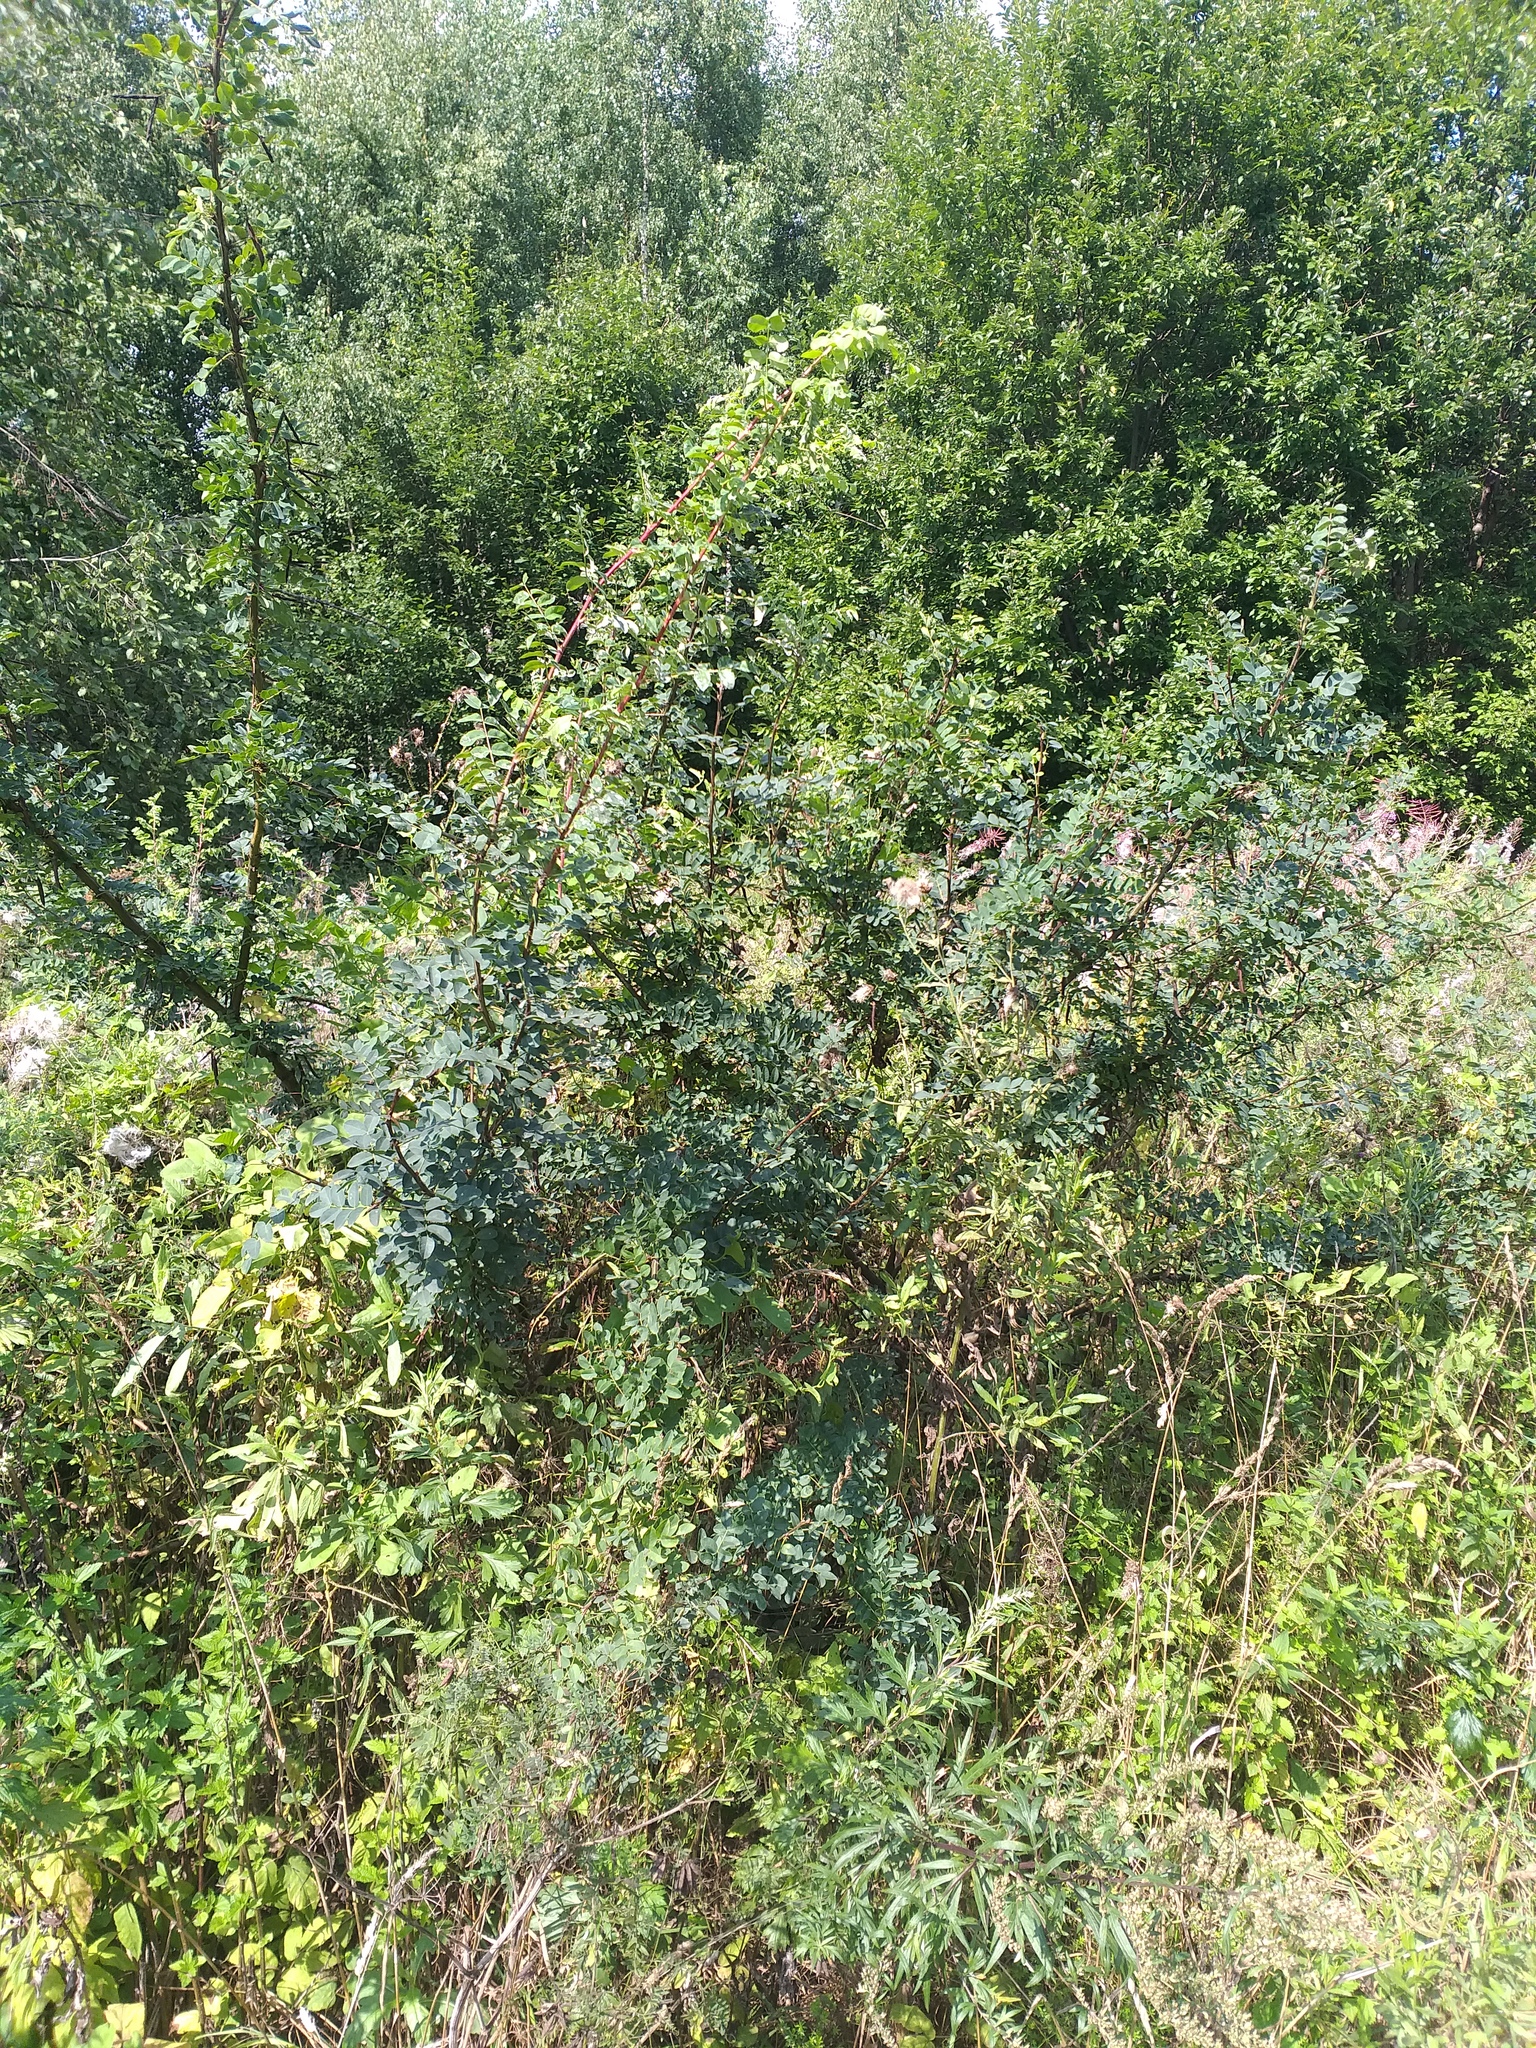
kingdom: Plantae
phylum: Tracheophyta
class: Magnoliopsida
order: Fabales
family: Fabaceae
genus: Caragana
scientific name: Caragana arborescens
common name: Siberian peashrub
